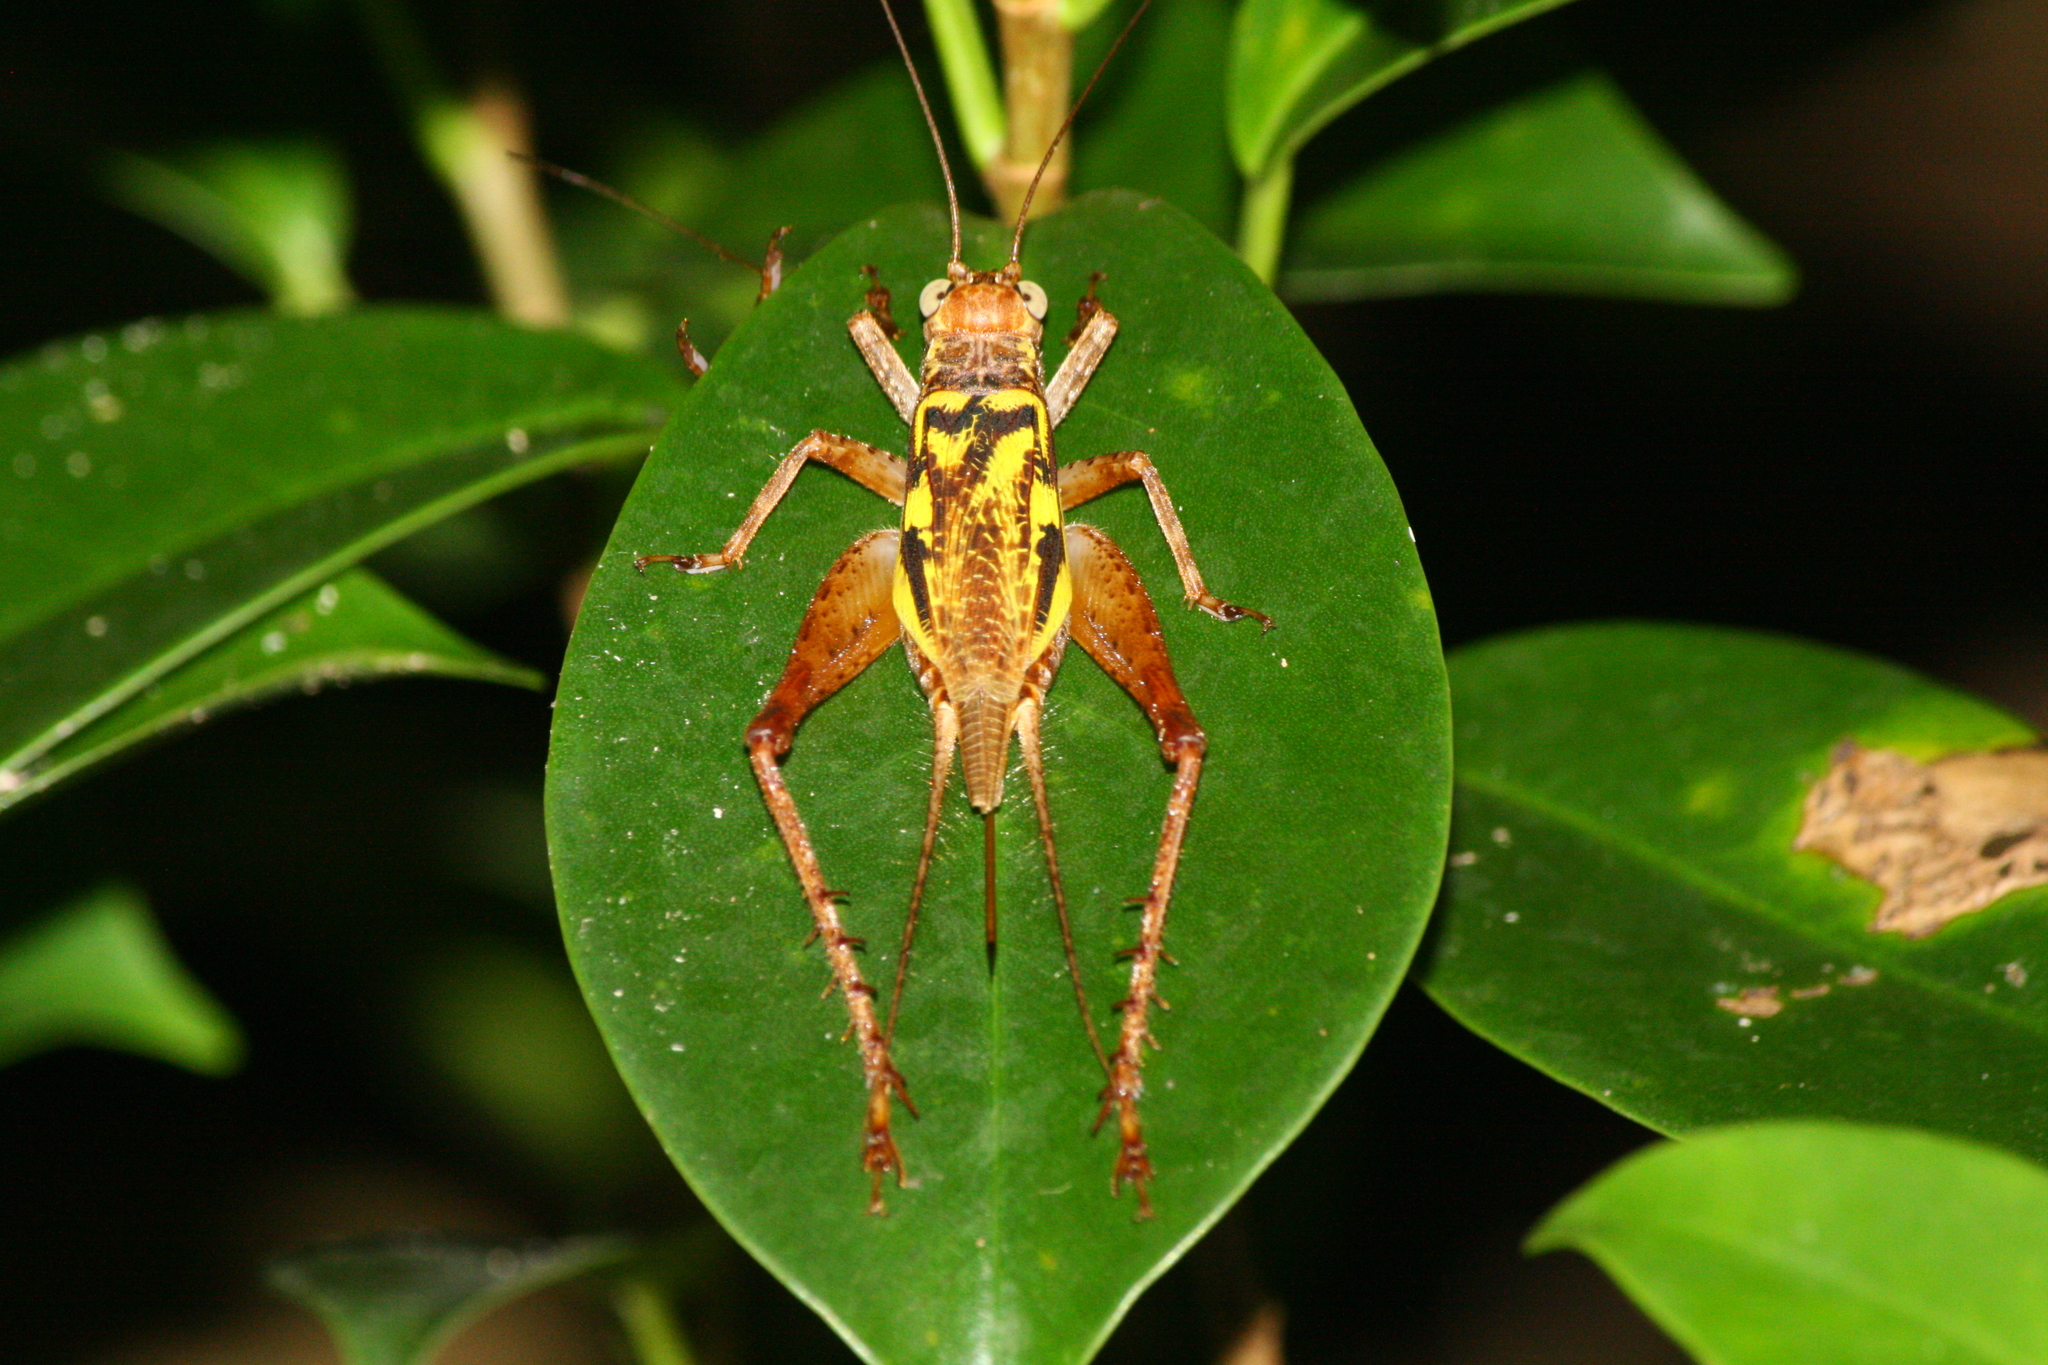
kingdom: Animalia
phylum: Arthropoda
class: Insecta
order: Orthoptera
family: Gryllidae
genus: Cardiodactylus
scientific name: Cardiodactylus guttulus
